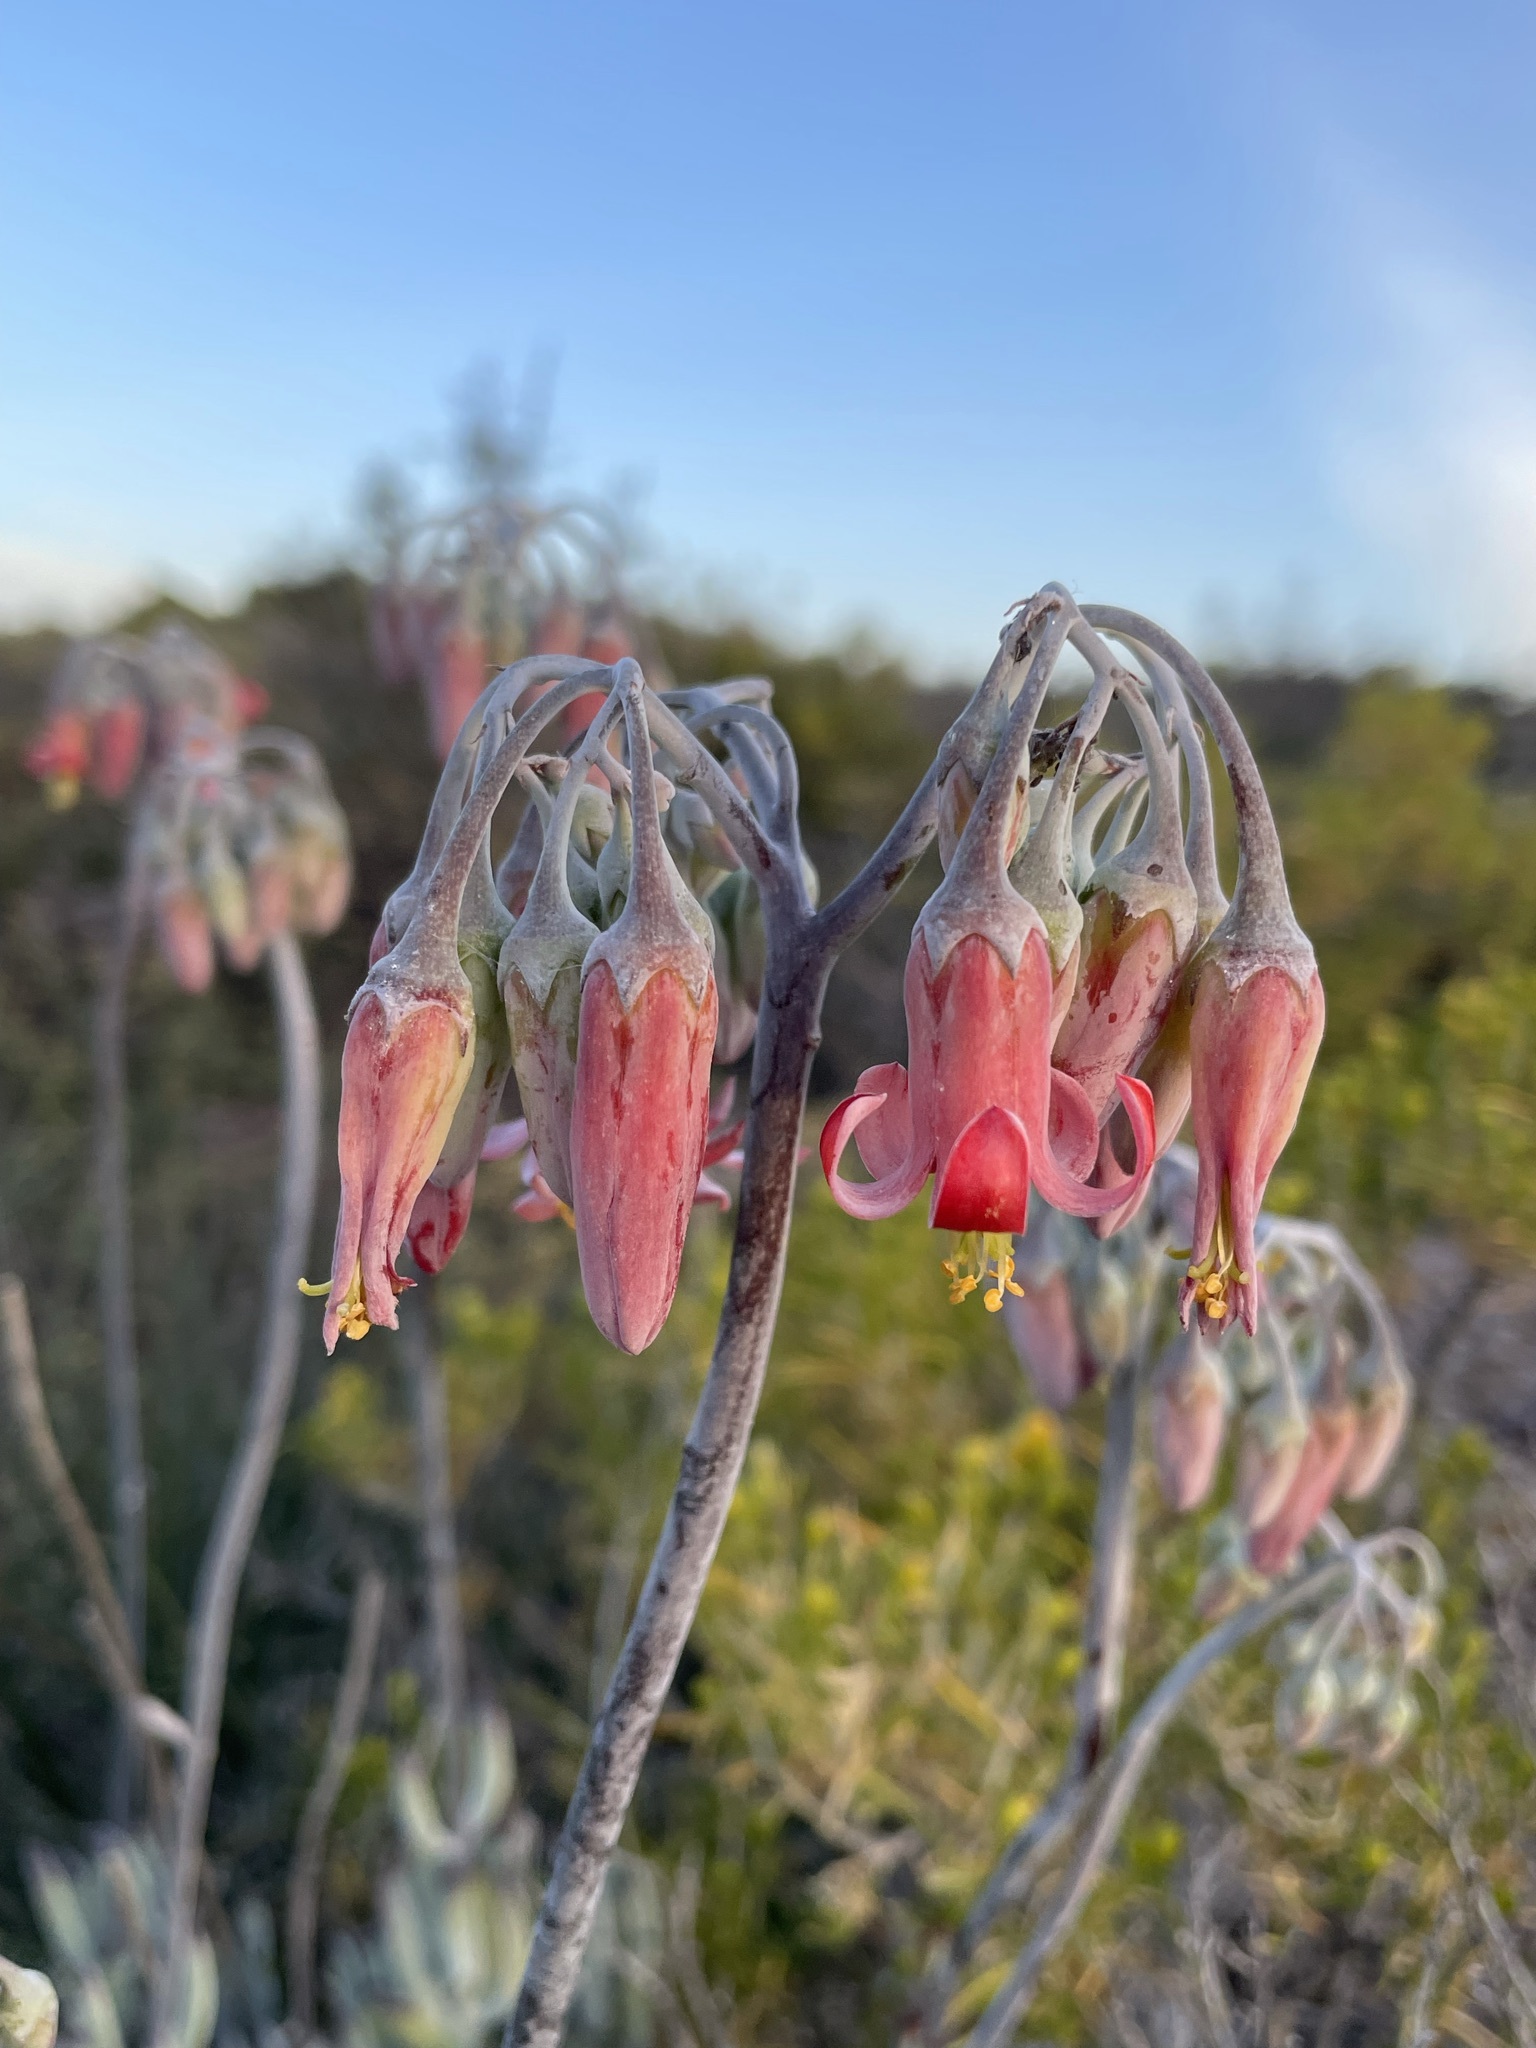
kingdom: Plantae
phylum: Tracheophyta
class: Magnoliopsida
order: Saxifragales
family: Crassulaceae
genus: Cotyledon
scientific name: Cotyledon orbiculata
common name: Pig's ear
